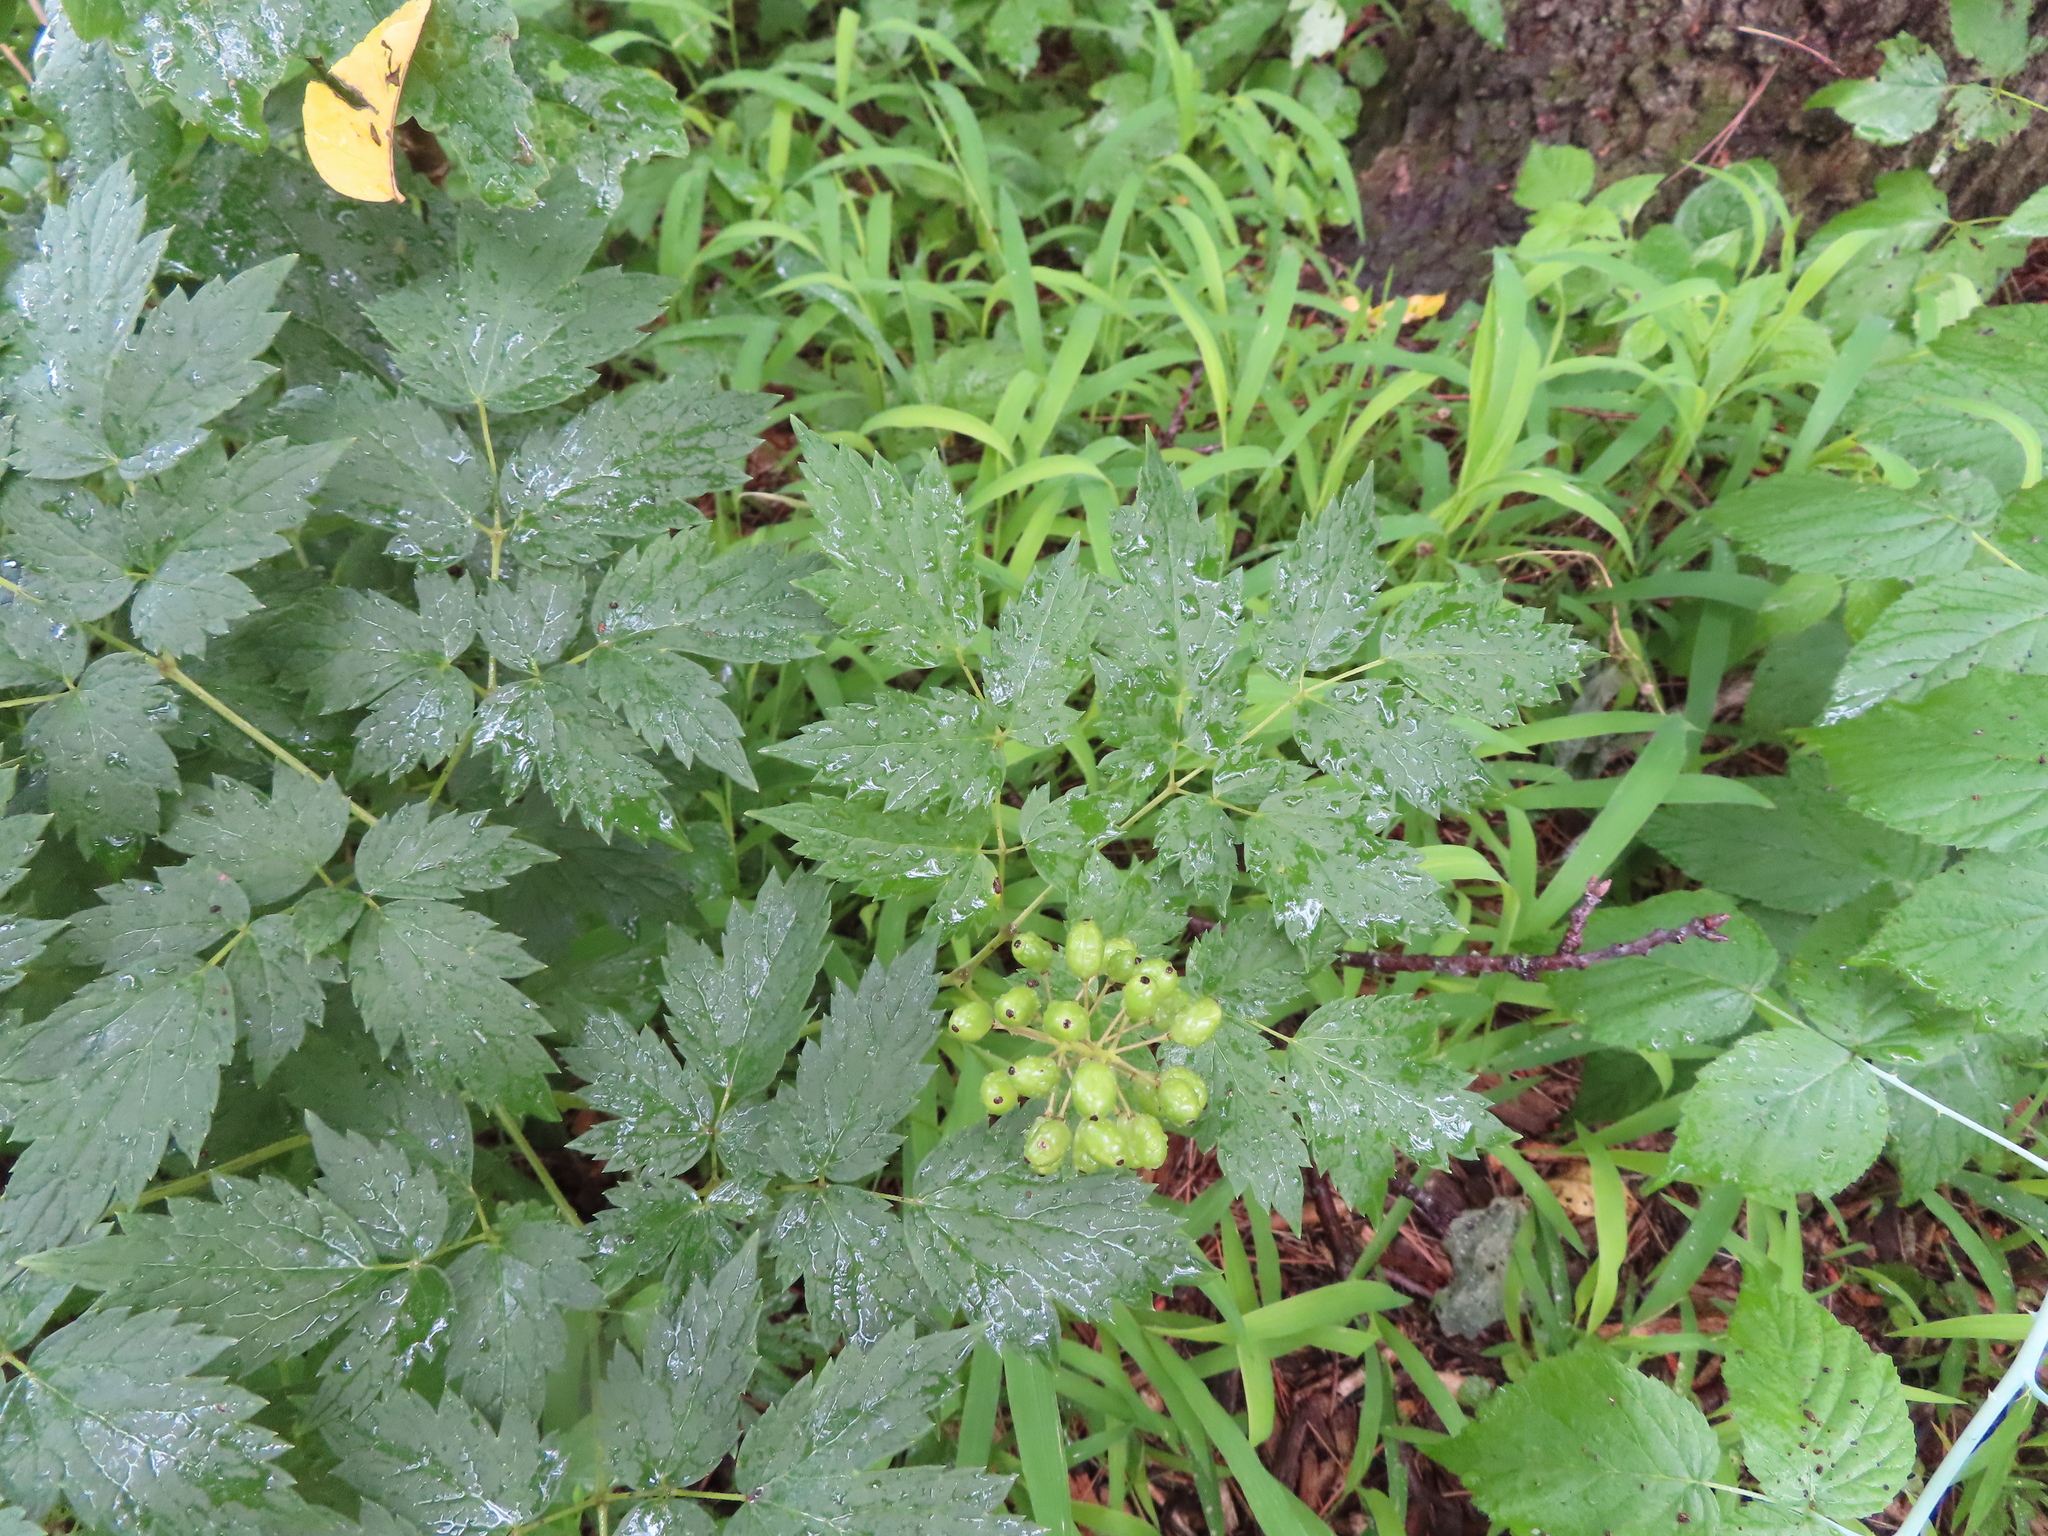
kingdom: Plantae
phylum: Tracheophyta
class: Magnoliopsida
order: Ranunculales
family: Ranunculaceae
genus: Actaea
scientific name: Actaea rubra
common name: Red baneberry
